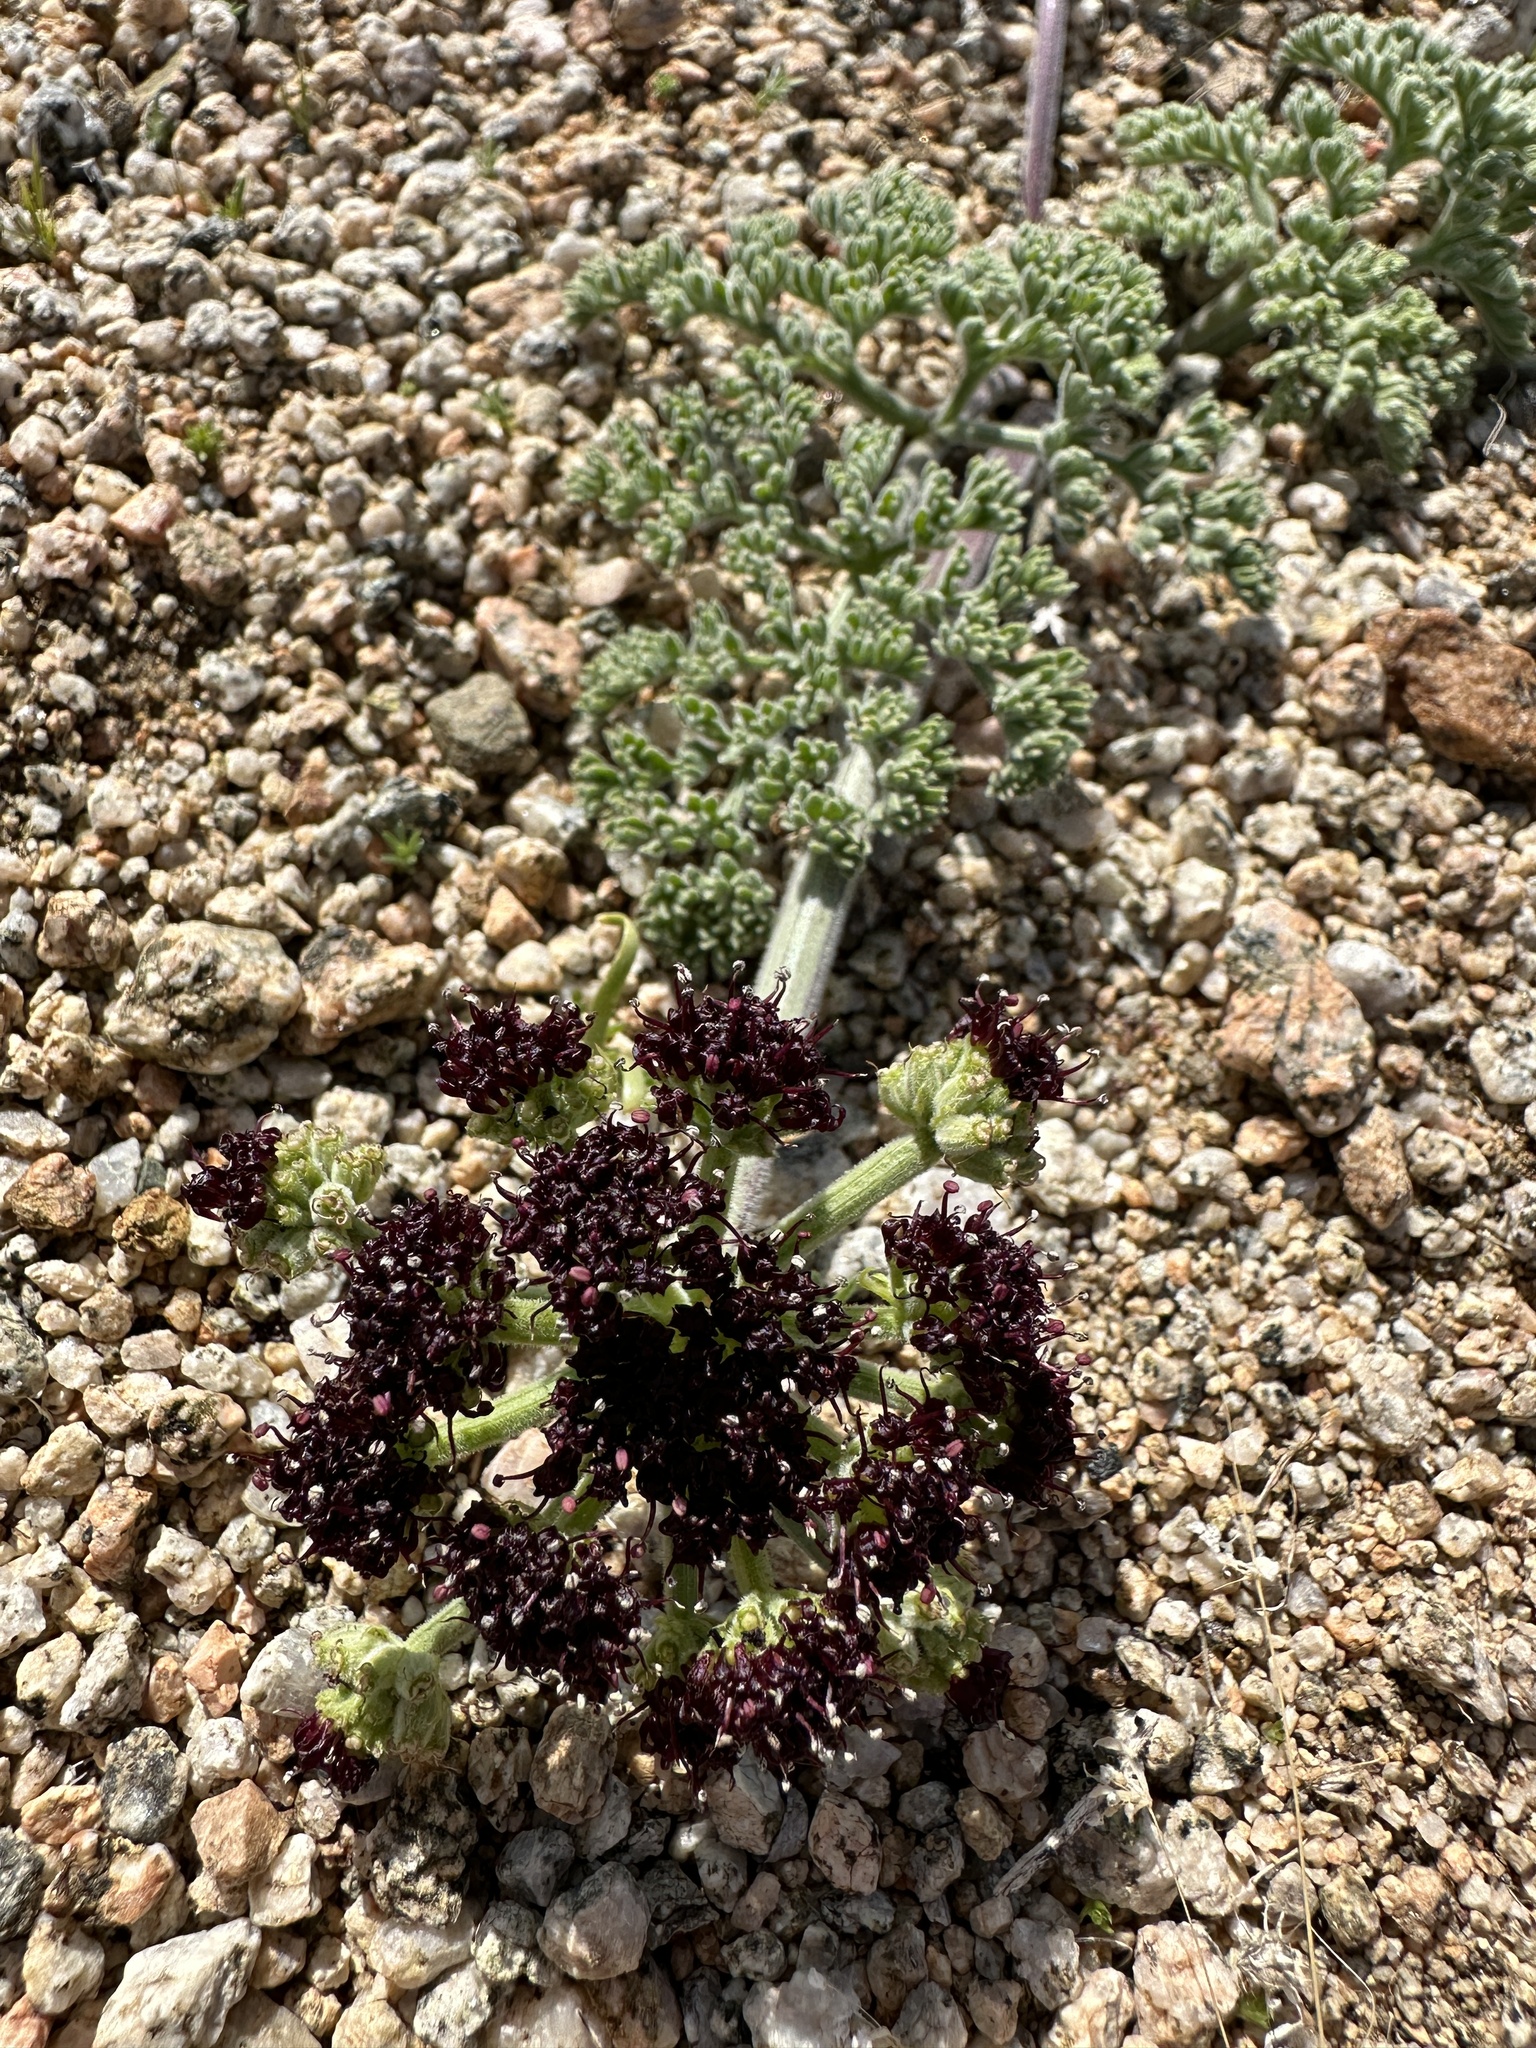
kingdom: Plantae
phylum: Tracheophyta
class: Magnoliopsida
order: Apiales
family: Apiaceae
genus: Lomatium
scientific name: Lomatium mohavense
